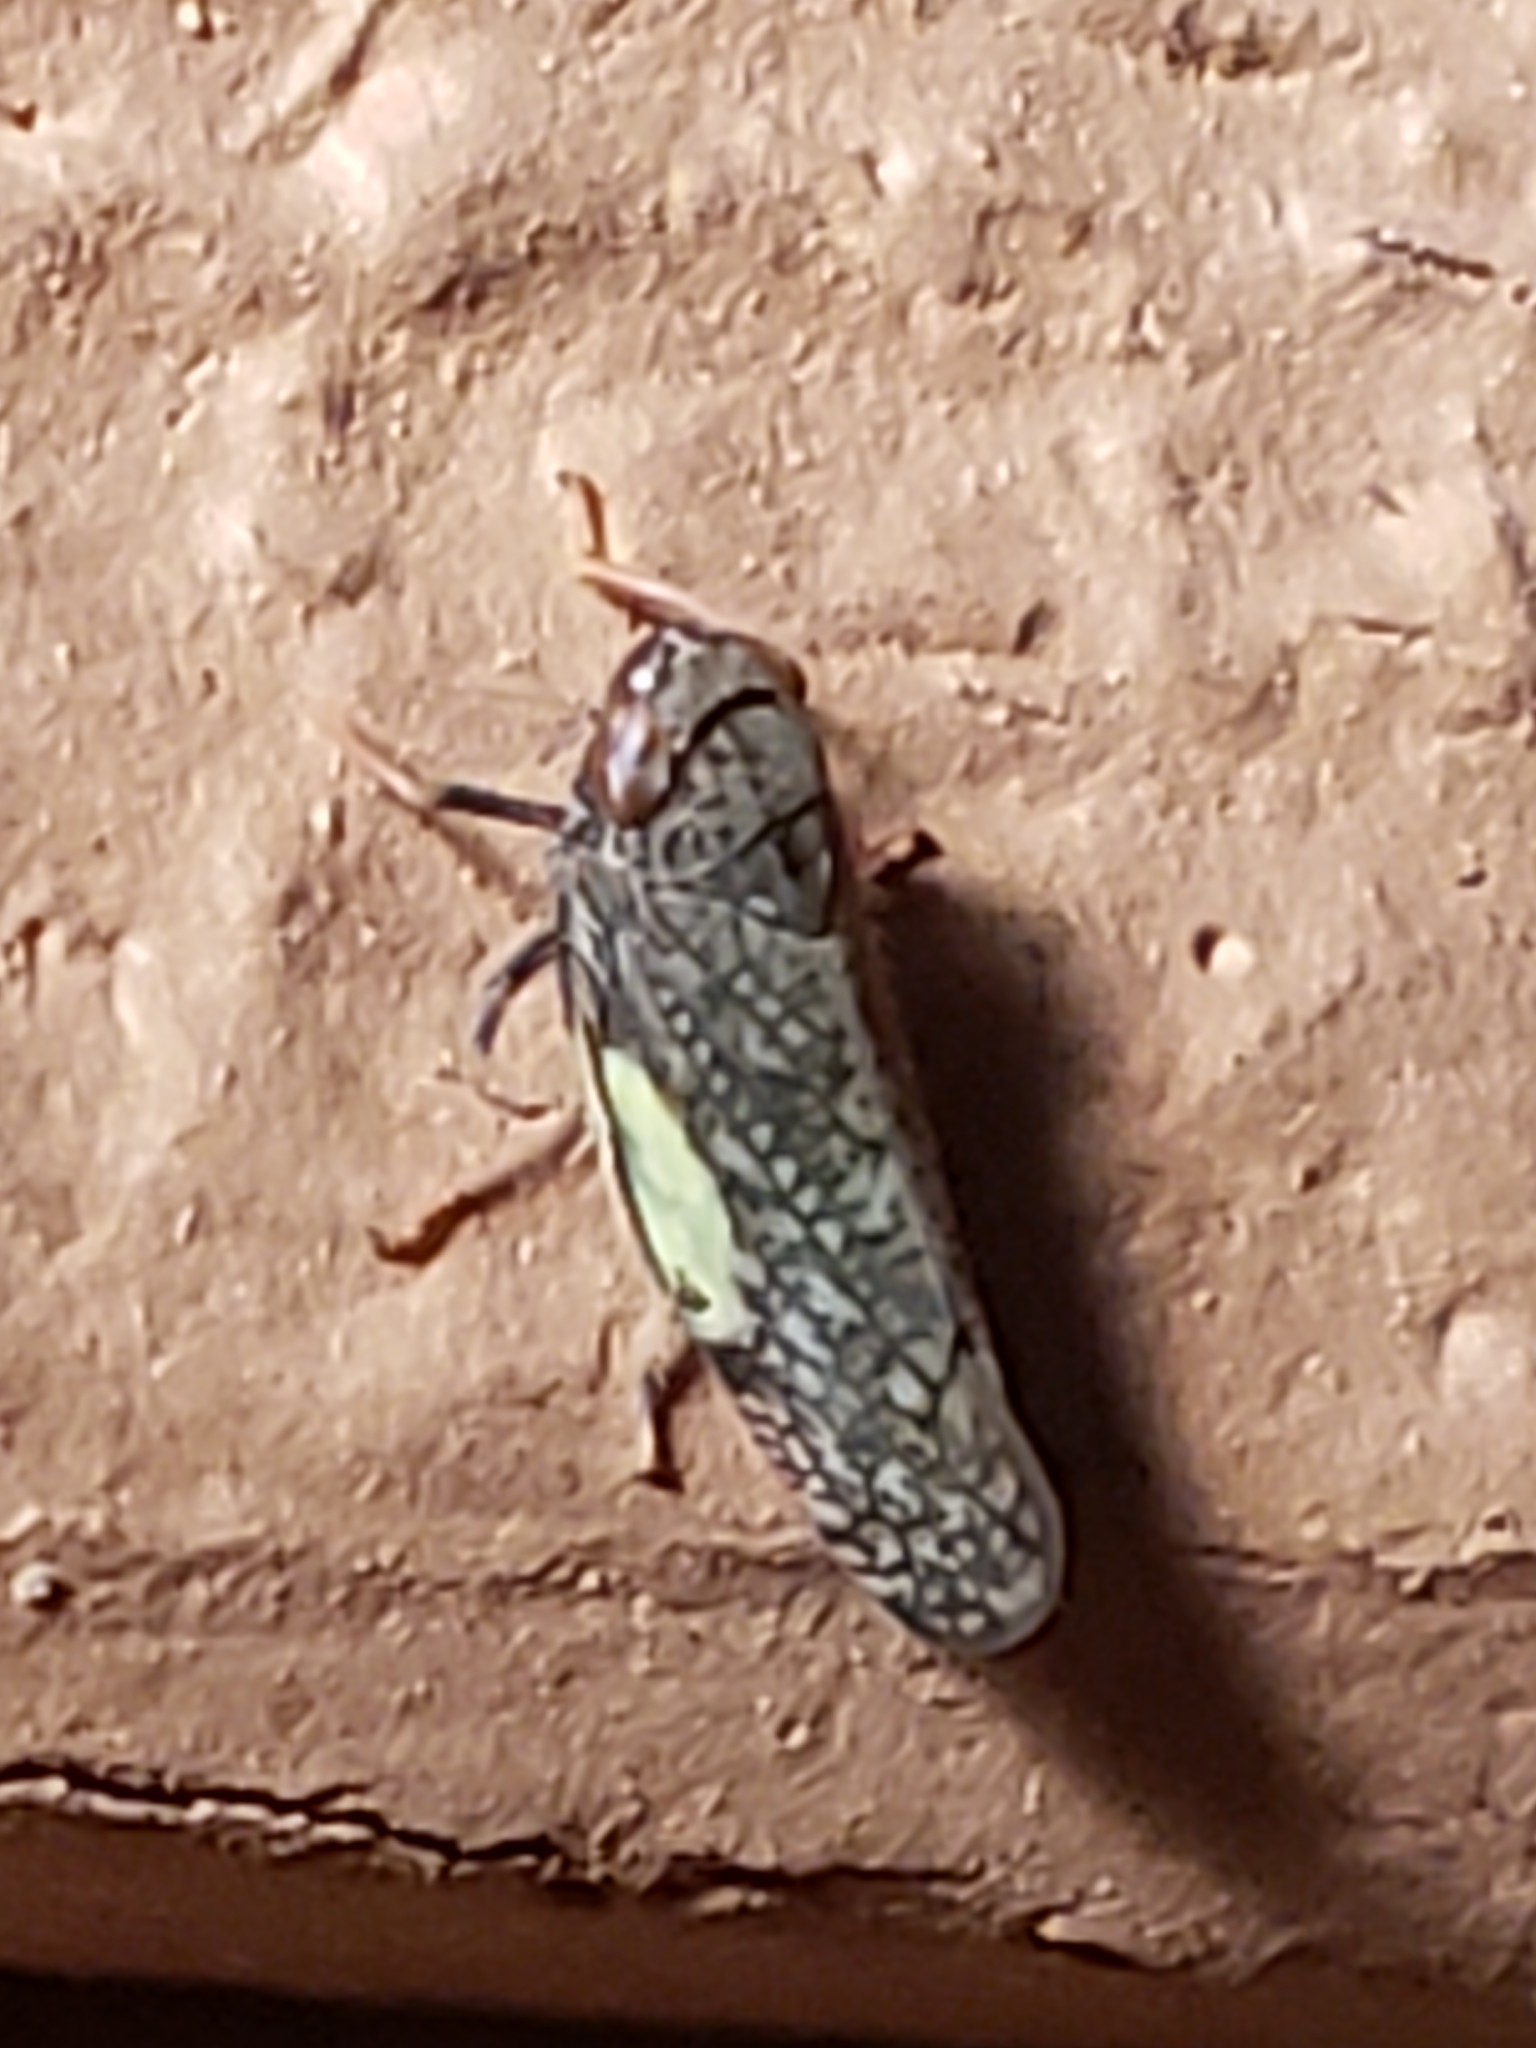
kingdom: Animalia
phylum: Arthropoda
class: Insecta
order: Hemiptera
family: Cicadellidae
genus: Orientus
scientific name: Orientus ishidae
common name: Japanese leafhopper
